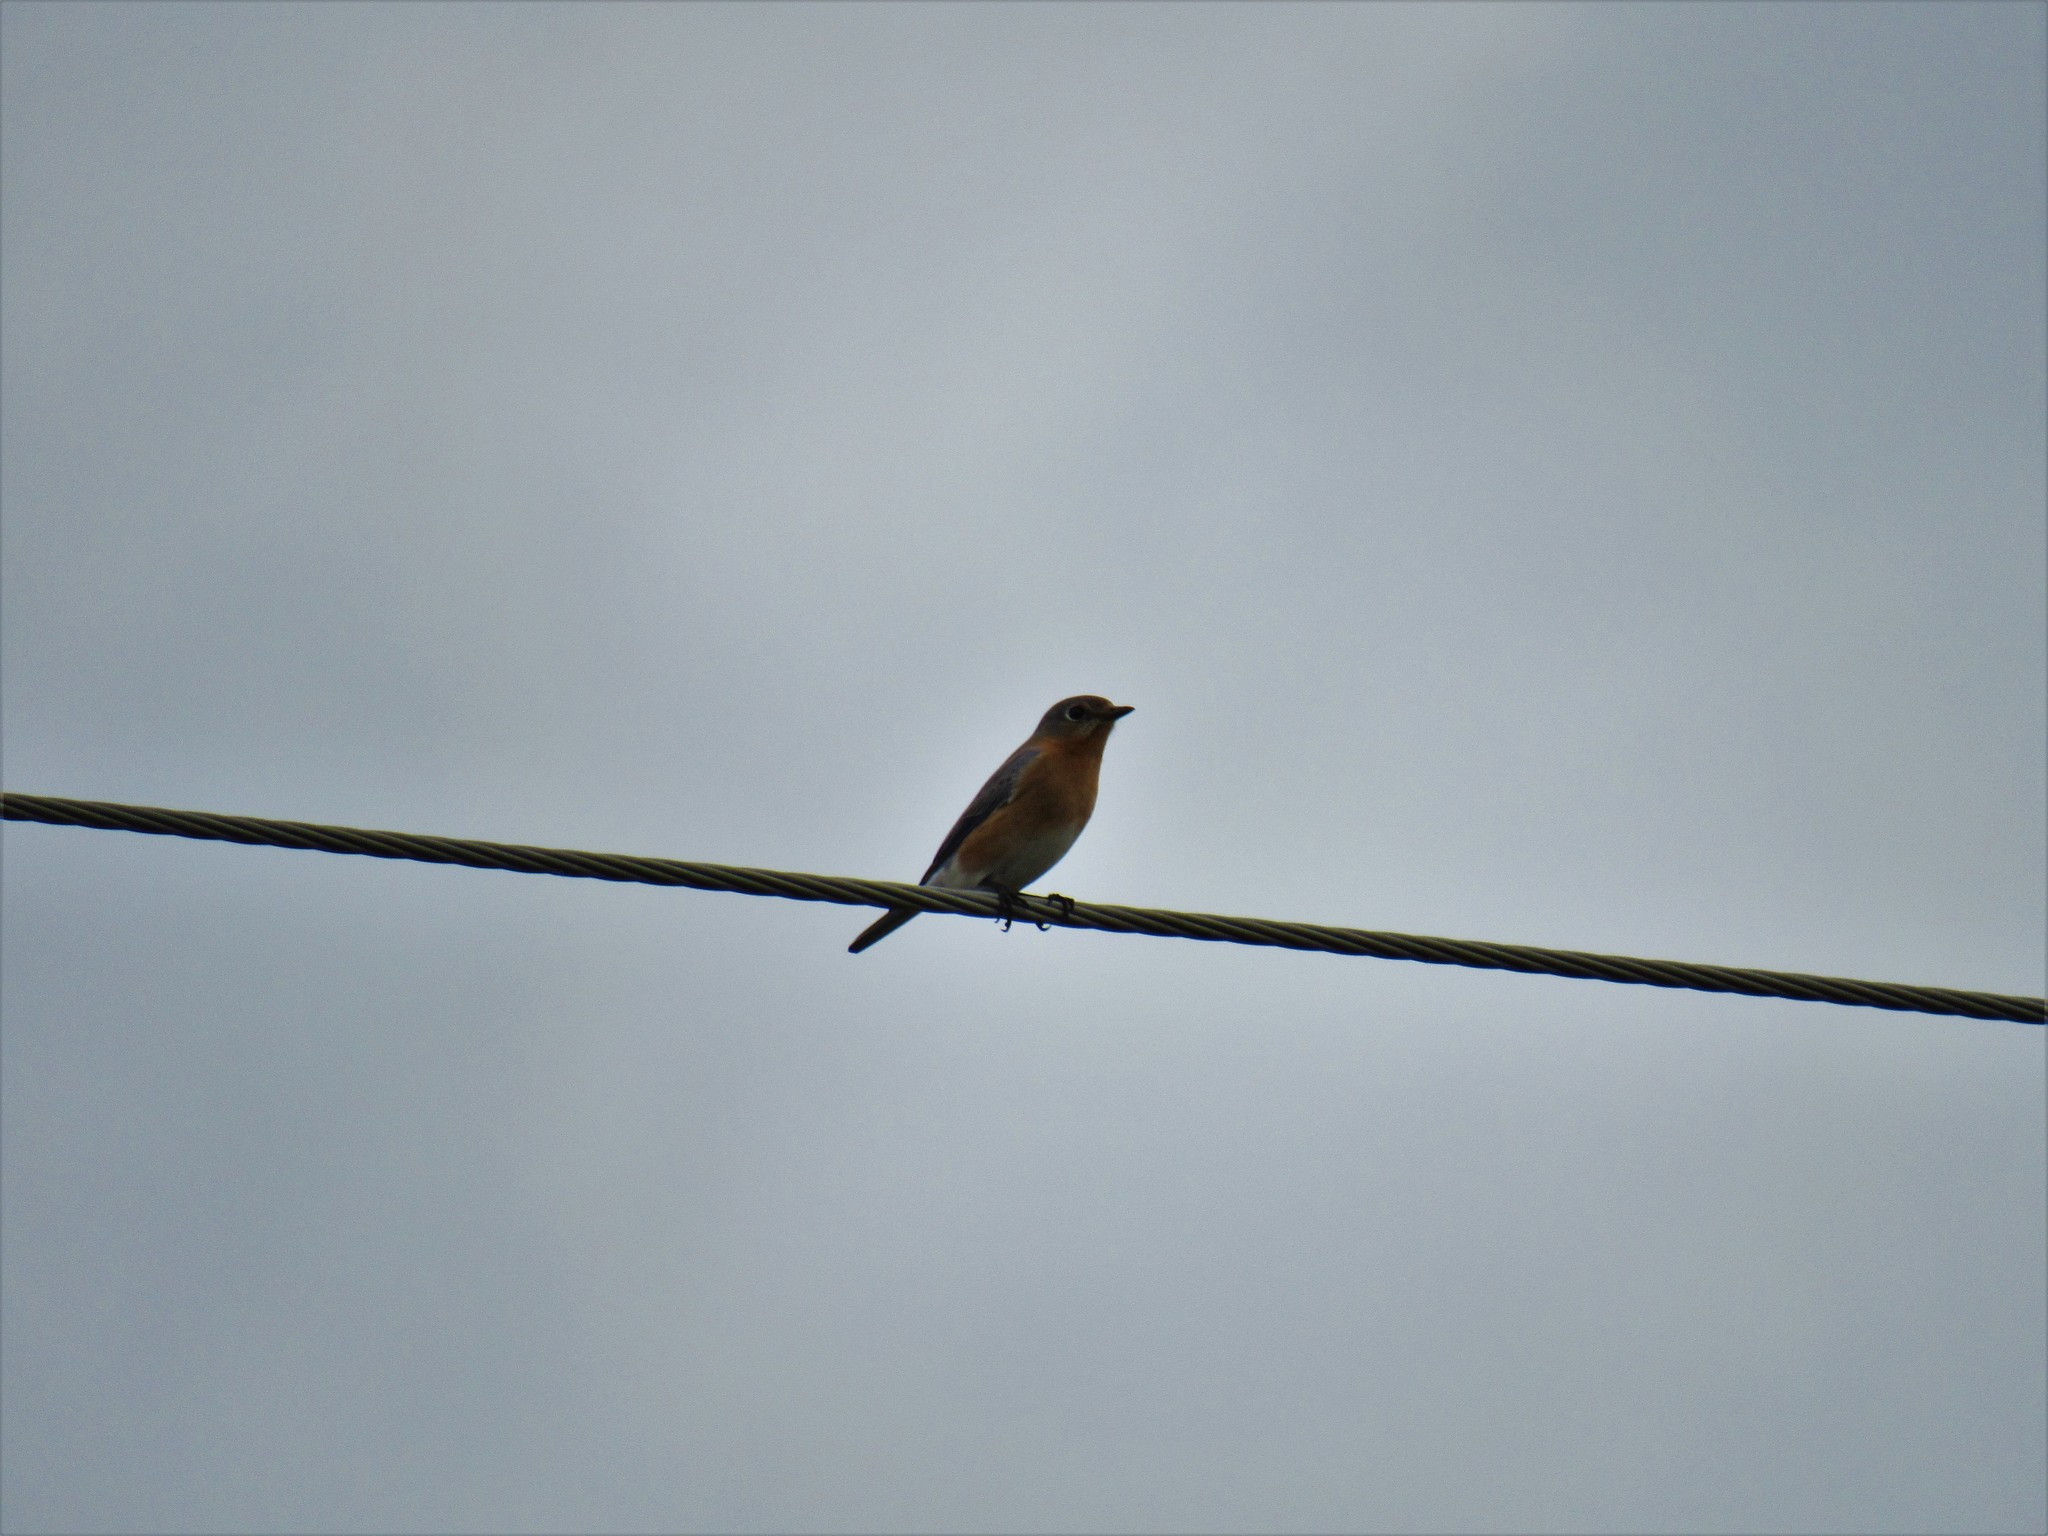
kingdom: Animalia
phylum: Chordata
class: Aves
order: Passeriformes
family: Turdidae
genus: Sialia
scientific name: Sialia sialis
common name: Eastern bluebird
